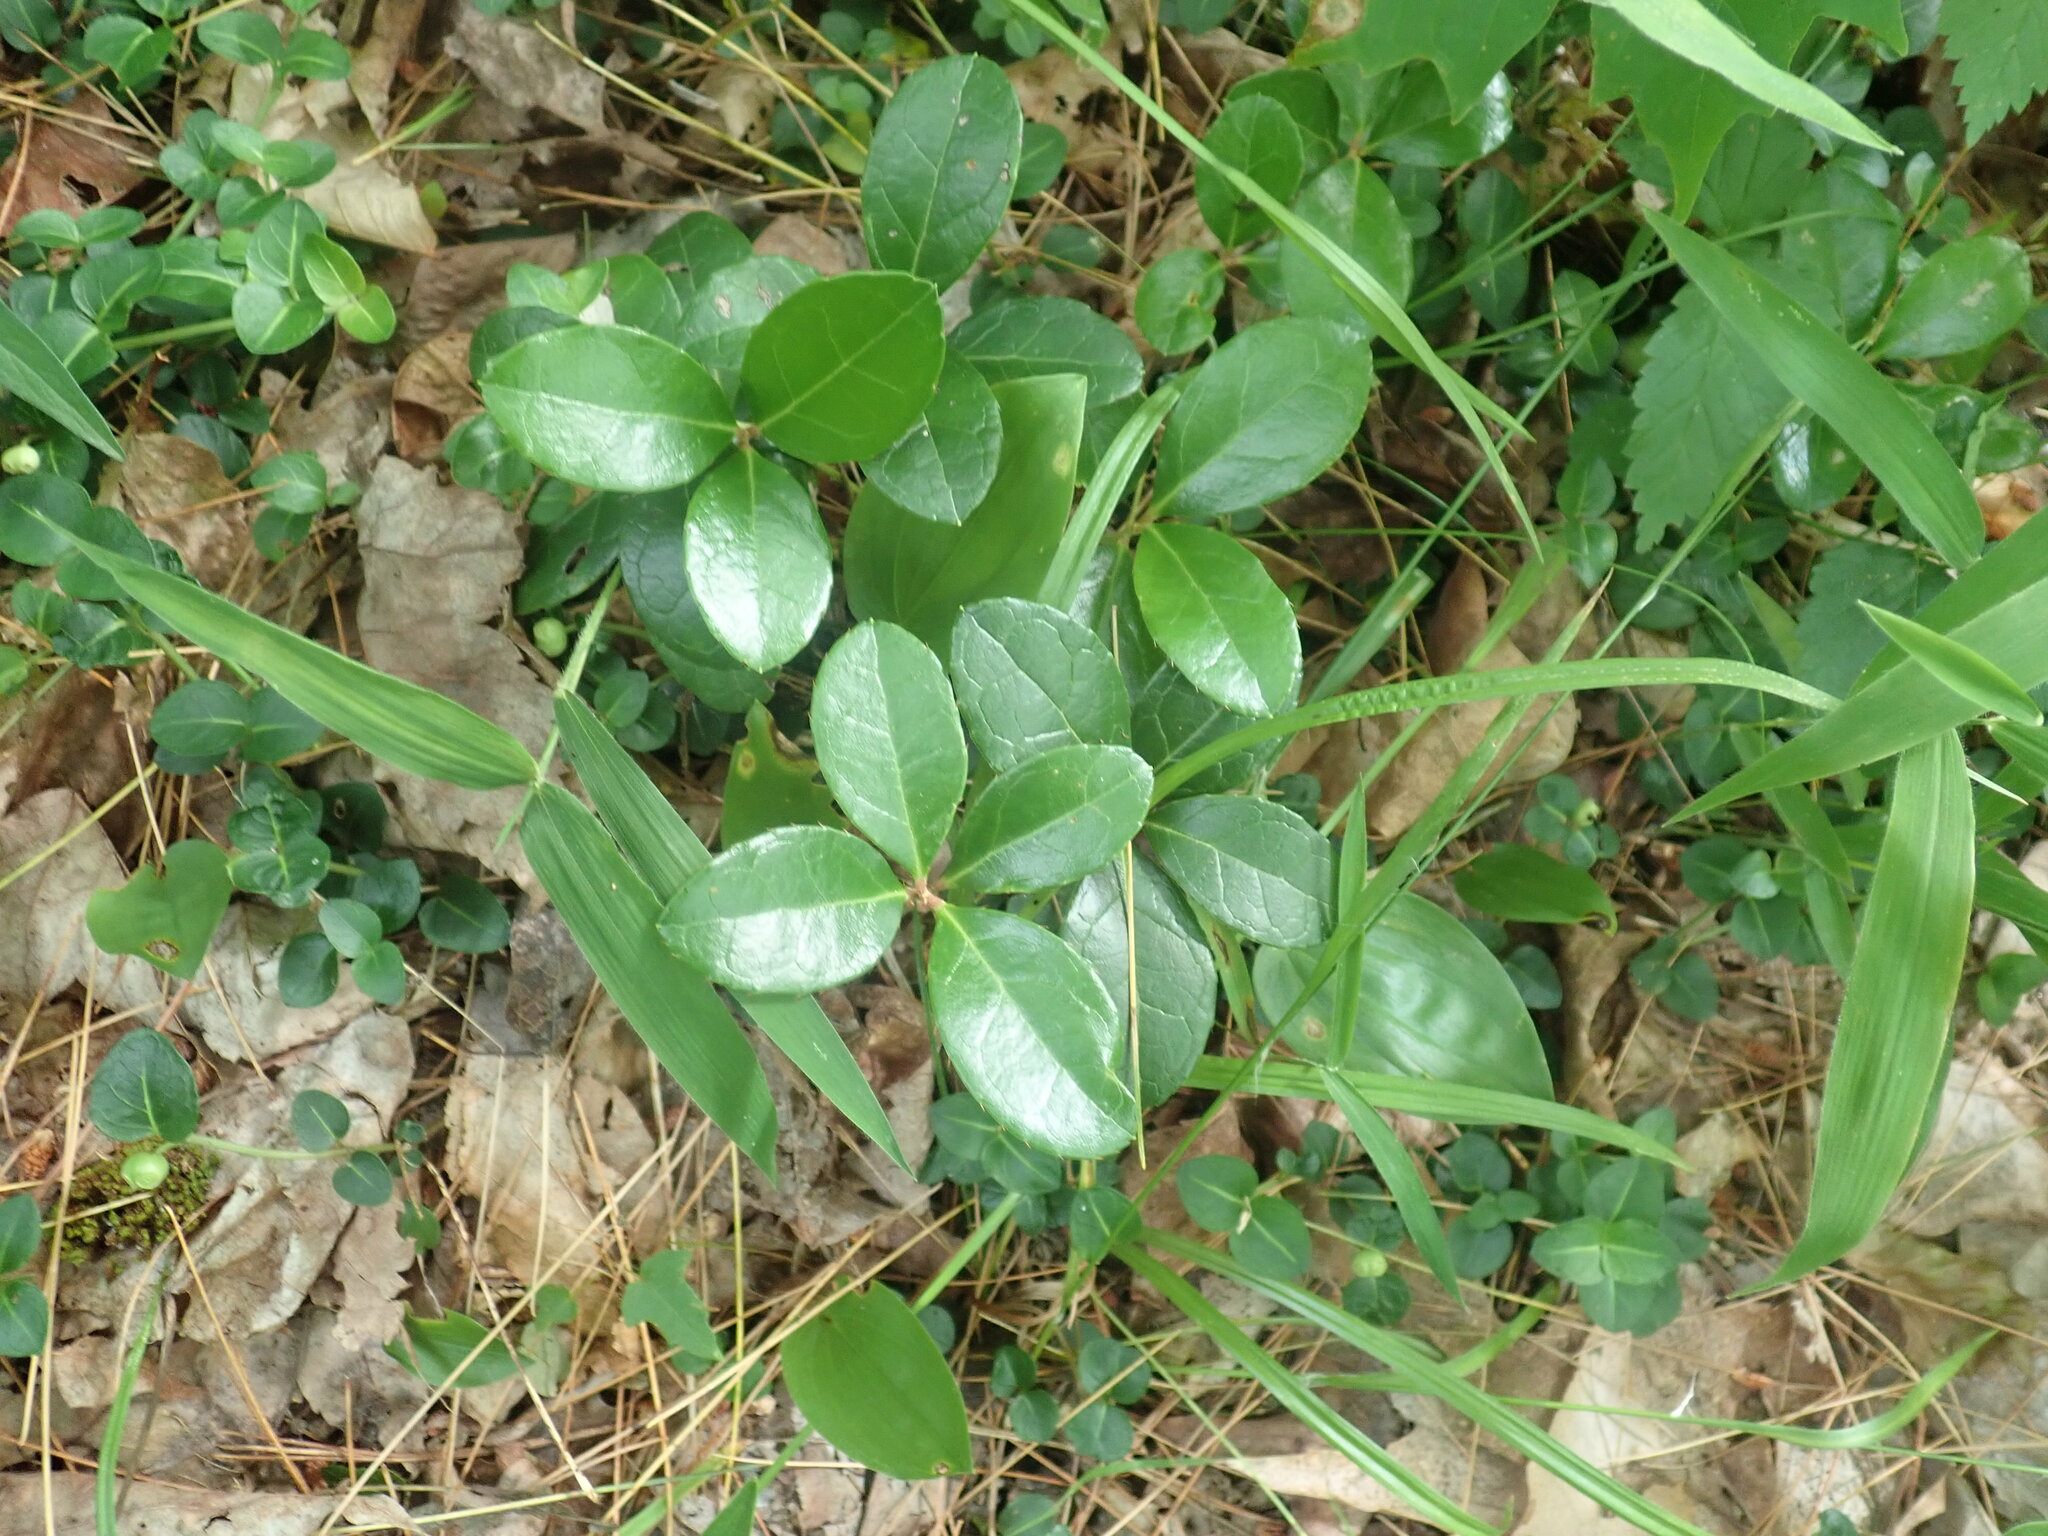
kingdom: Plantae
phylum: Tracheophyta
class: Magnoliopsida
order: Ericales
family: Ericaceae
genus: Gaultheria
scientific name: Gaultheria procumbens
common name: Checkerberry
